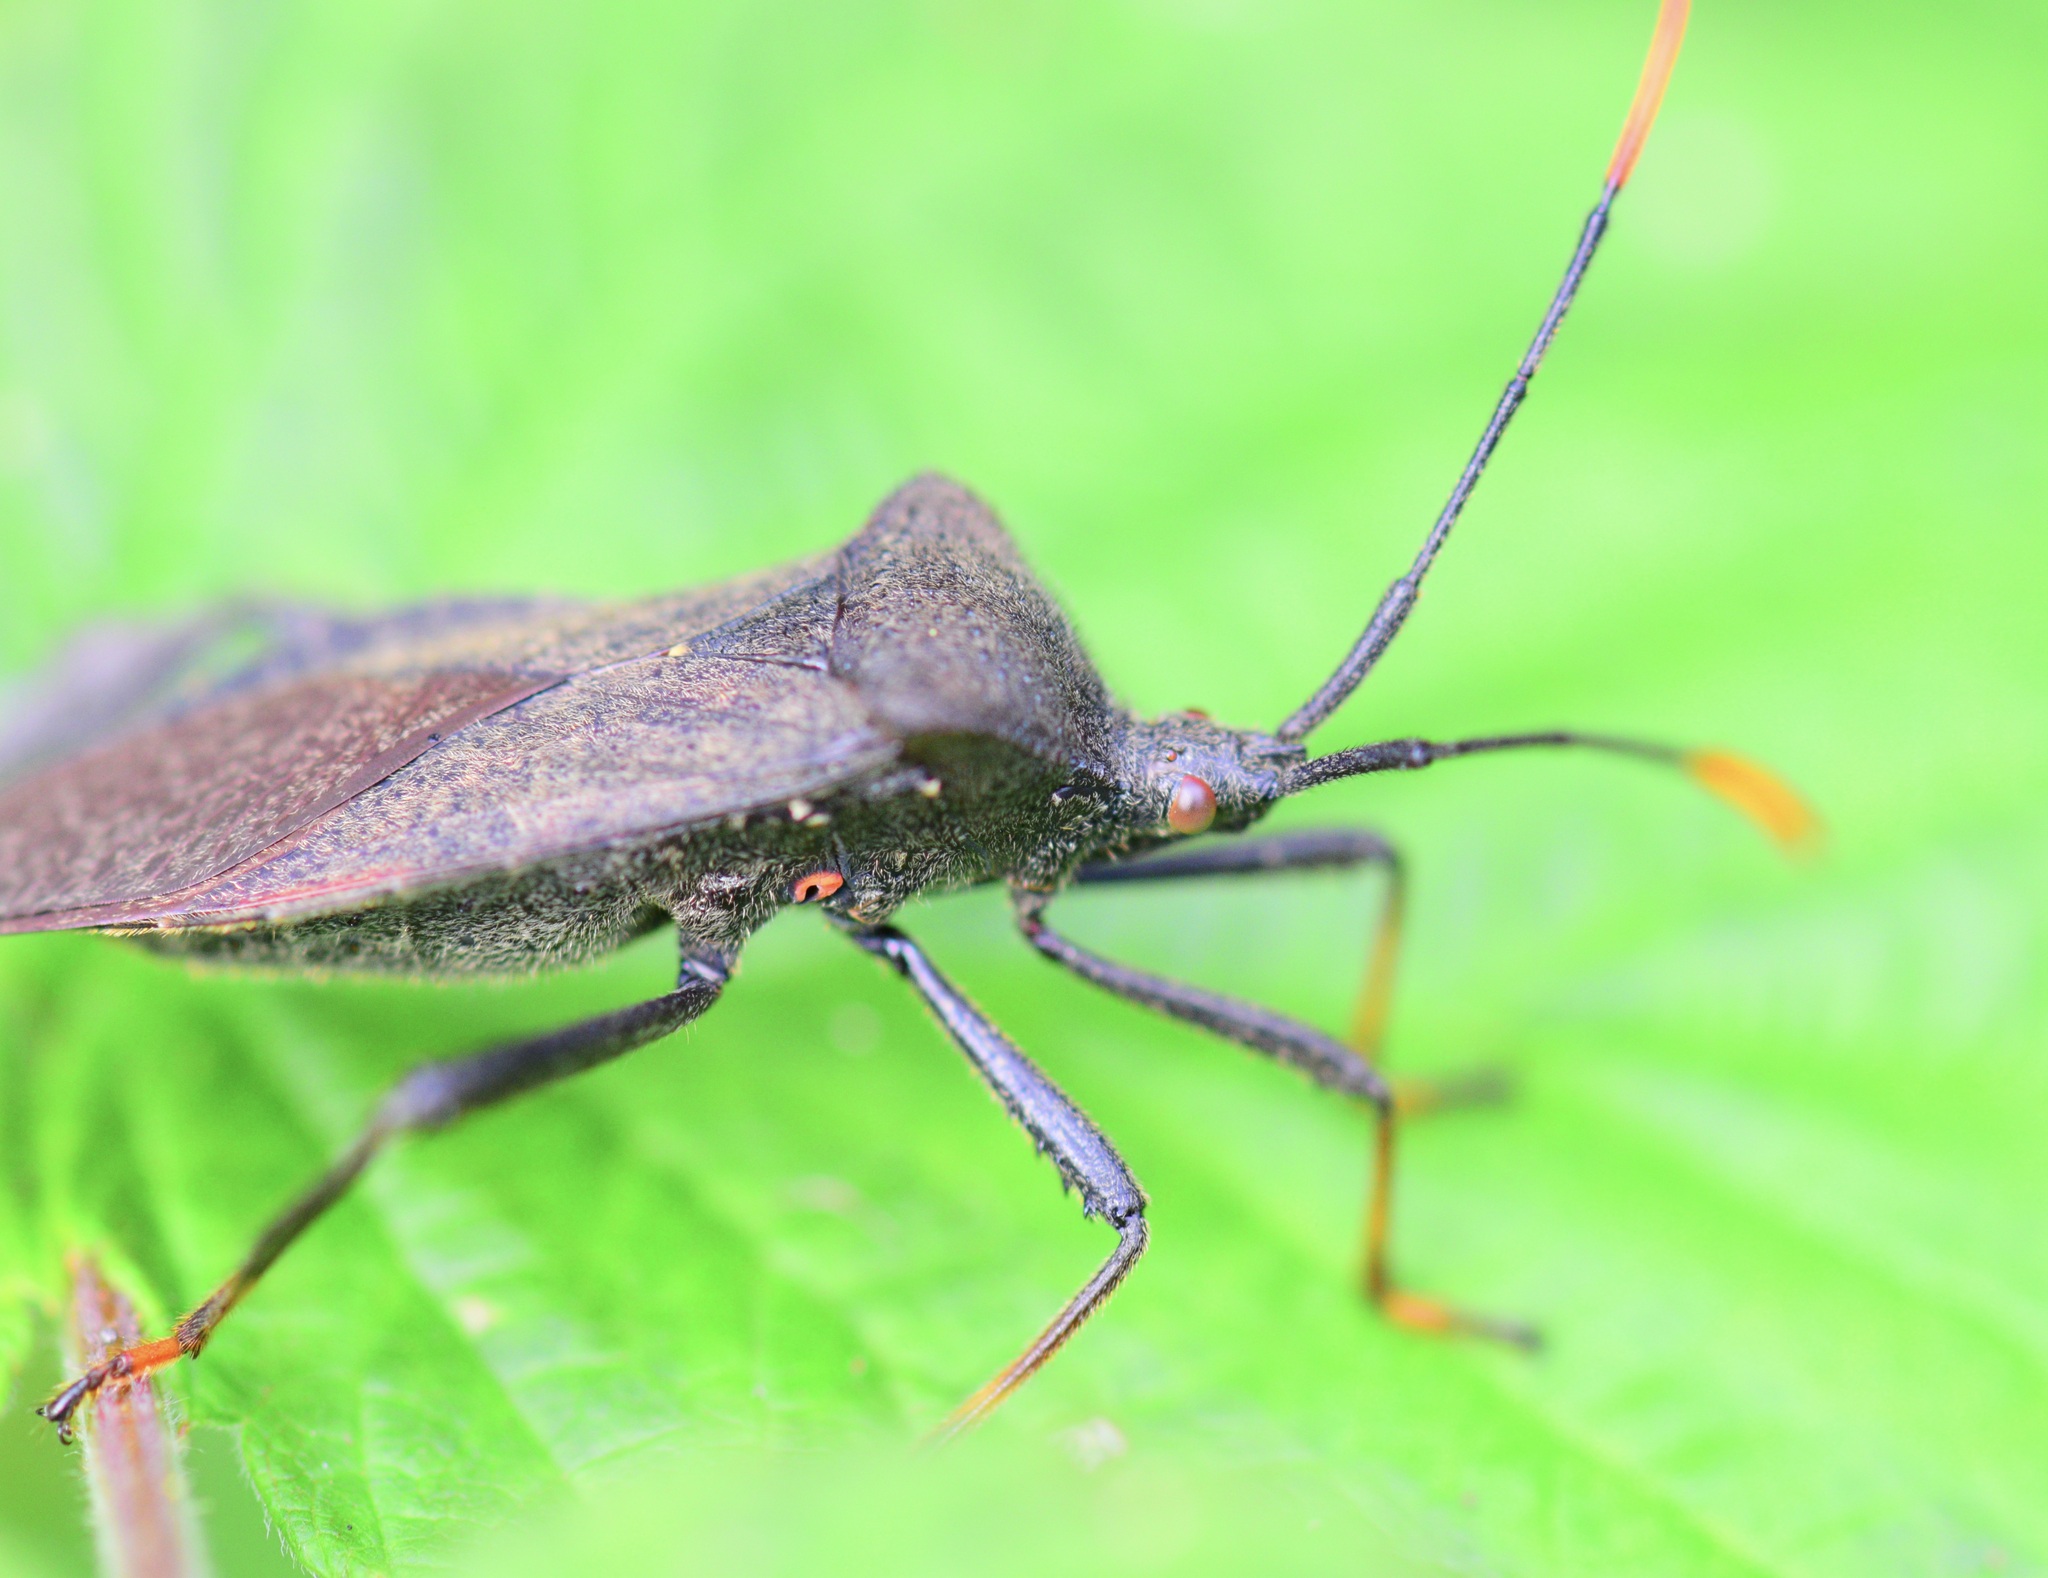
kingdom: Animalia
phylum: Arthropoda
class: Insecta
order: Hemiptera
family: Coreidae
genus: Acanthocephala
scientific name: Acanthocephala terminalis
